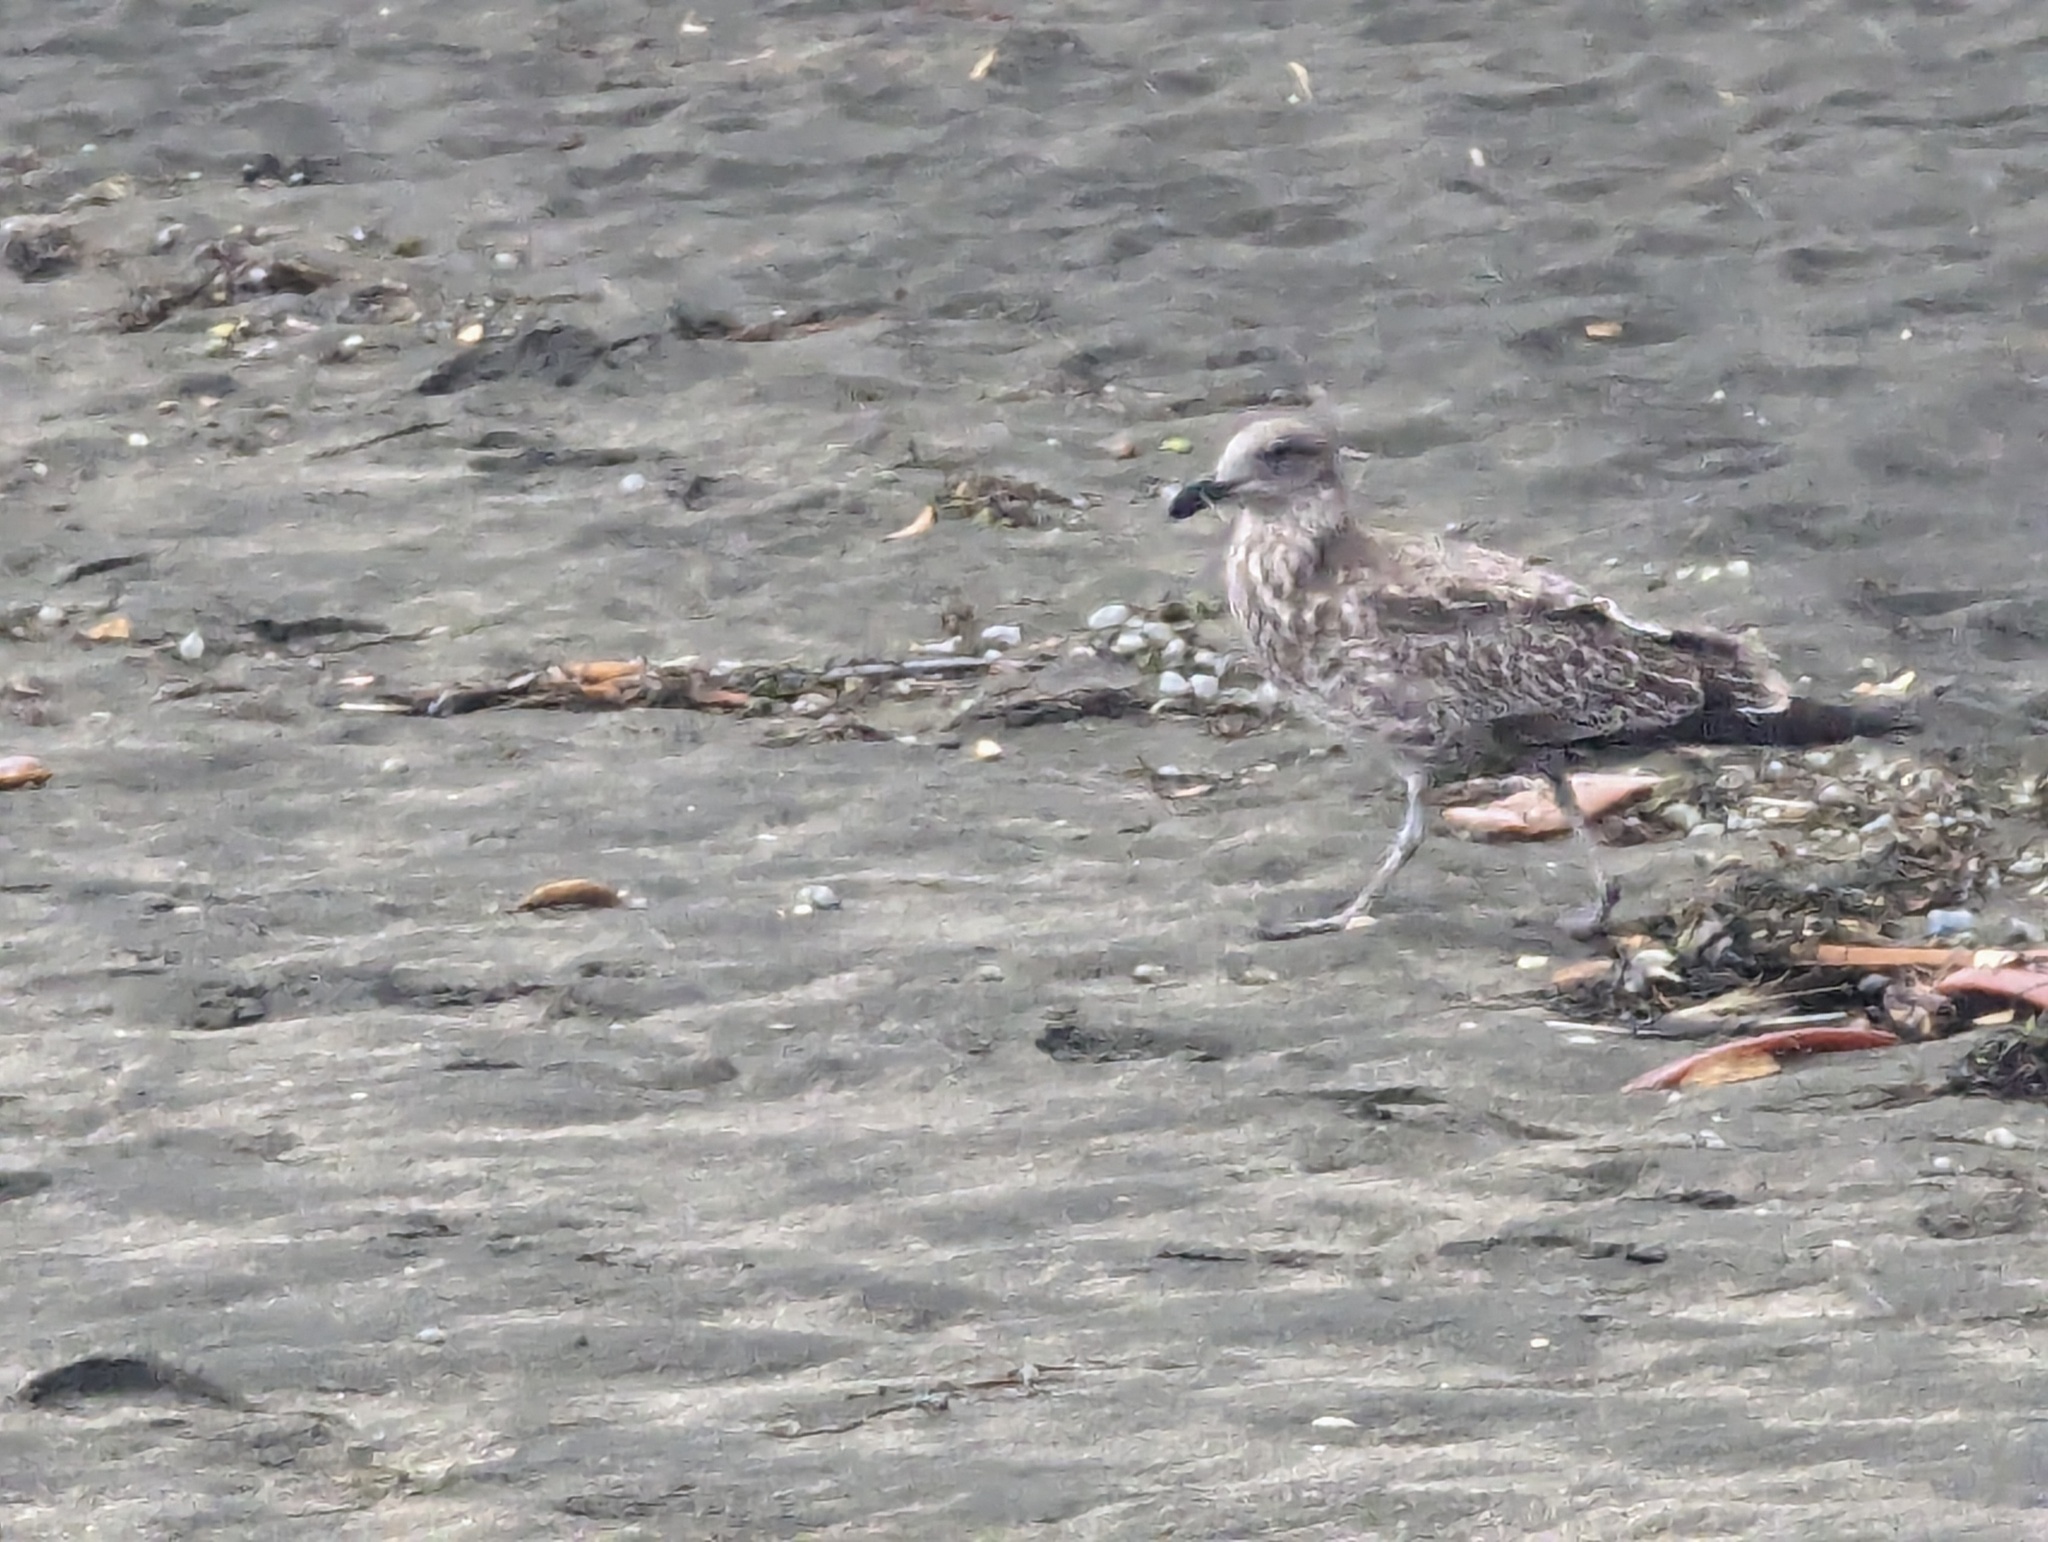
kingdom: Animalia
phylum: Chordata
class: Aves
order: Charadriiformes
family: Laridae
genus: Larus
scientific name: Larus dominicanus
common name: Kelp gull
